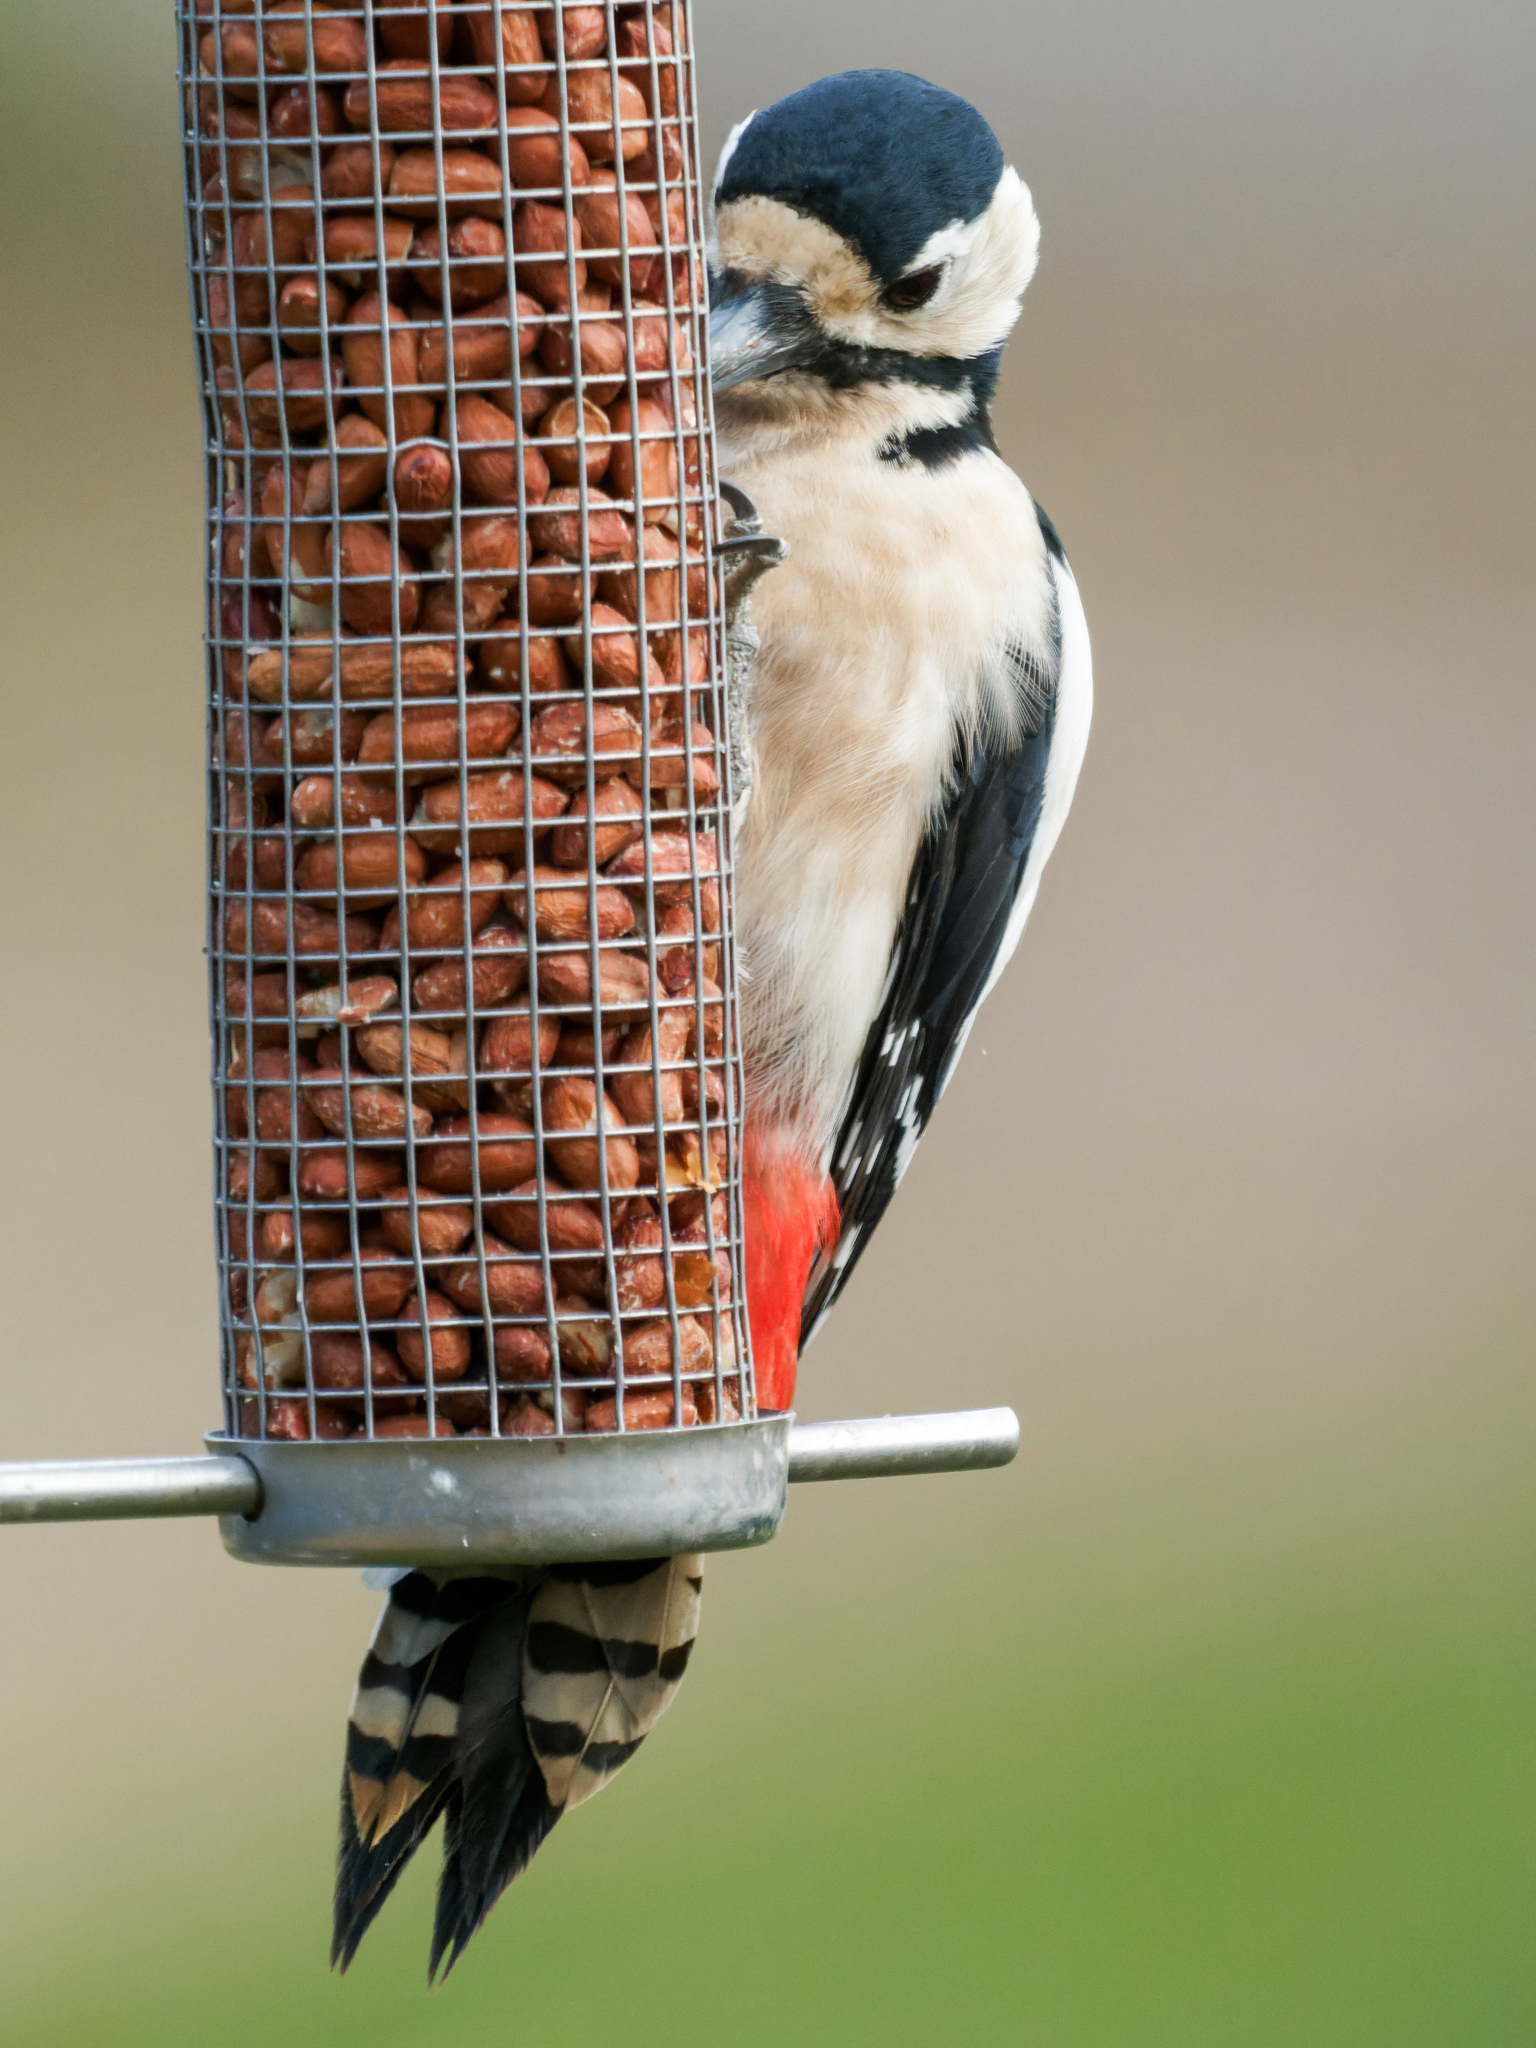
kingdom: Animalia
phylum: Chordata
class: Aves
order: Piciformes
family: Picidae
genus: Dendrocopos
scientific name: Dendrocopos major
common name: Great spotted woodpecker
